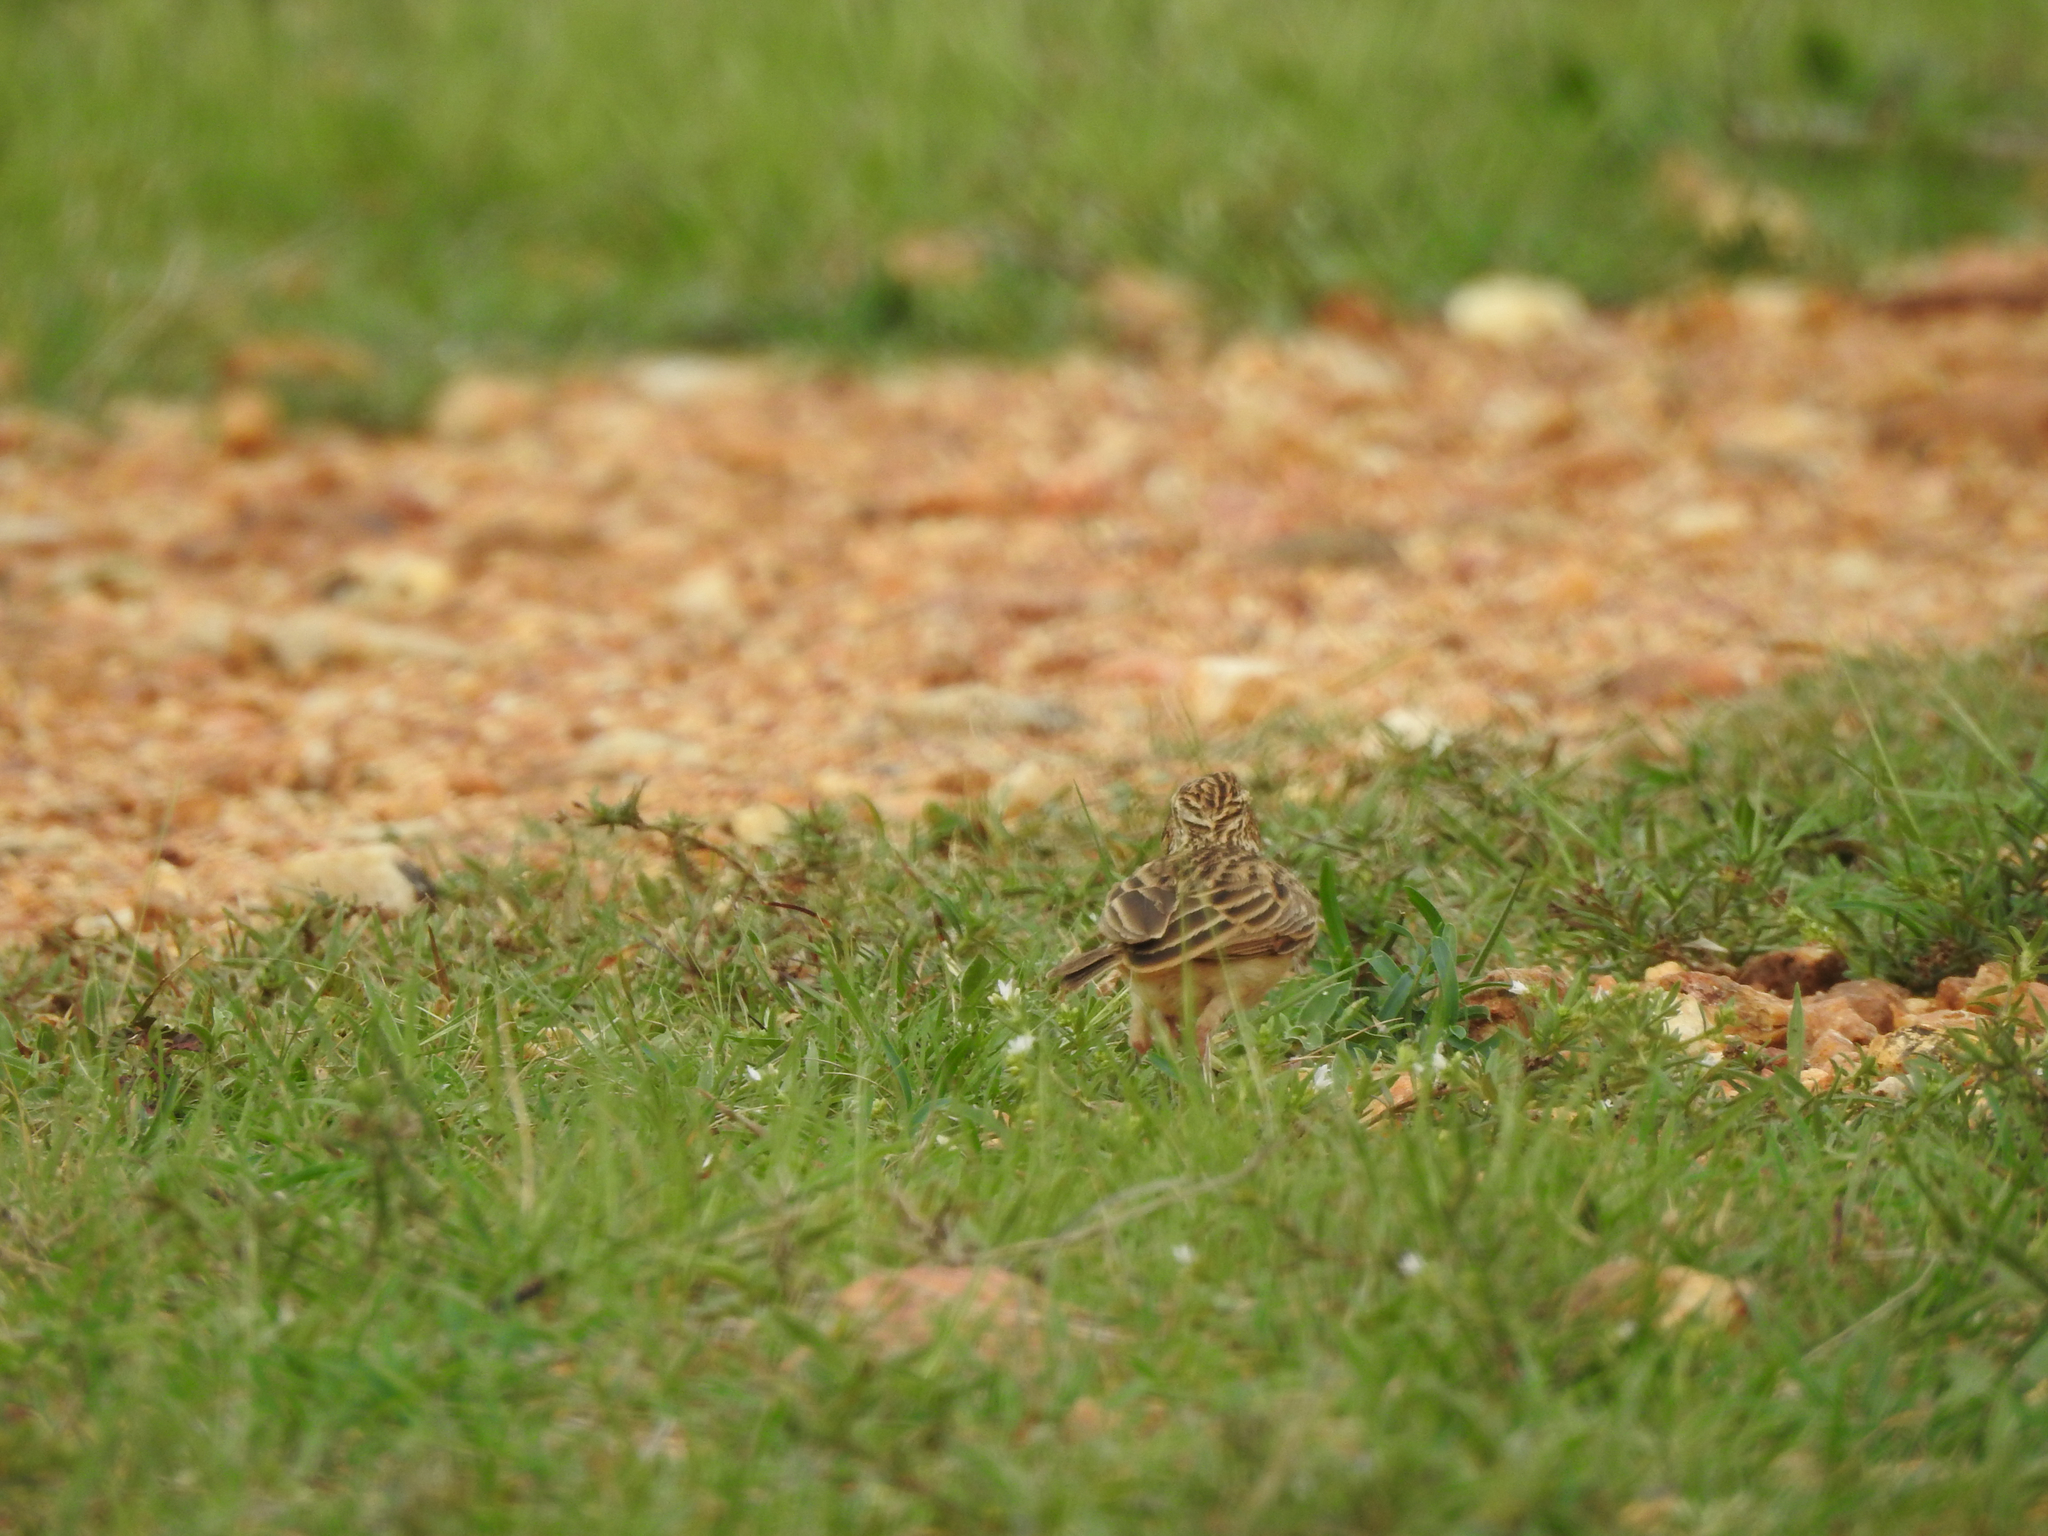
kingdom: Animalia
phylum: Chordata
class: Aves
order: Passeriformes
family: Alaudidae
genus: Mirafra
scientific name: Mirafra affinis
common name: Jerdon's bushlark
